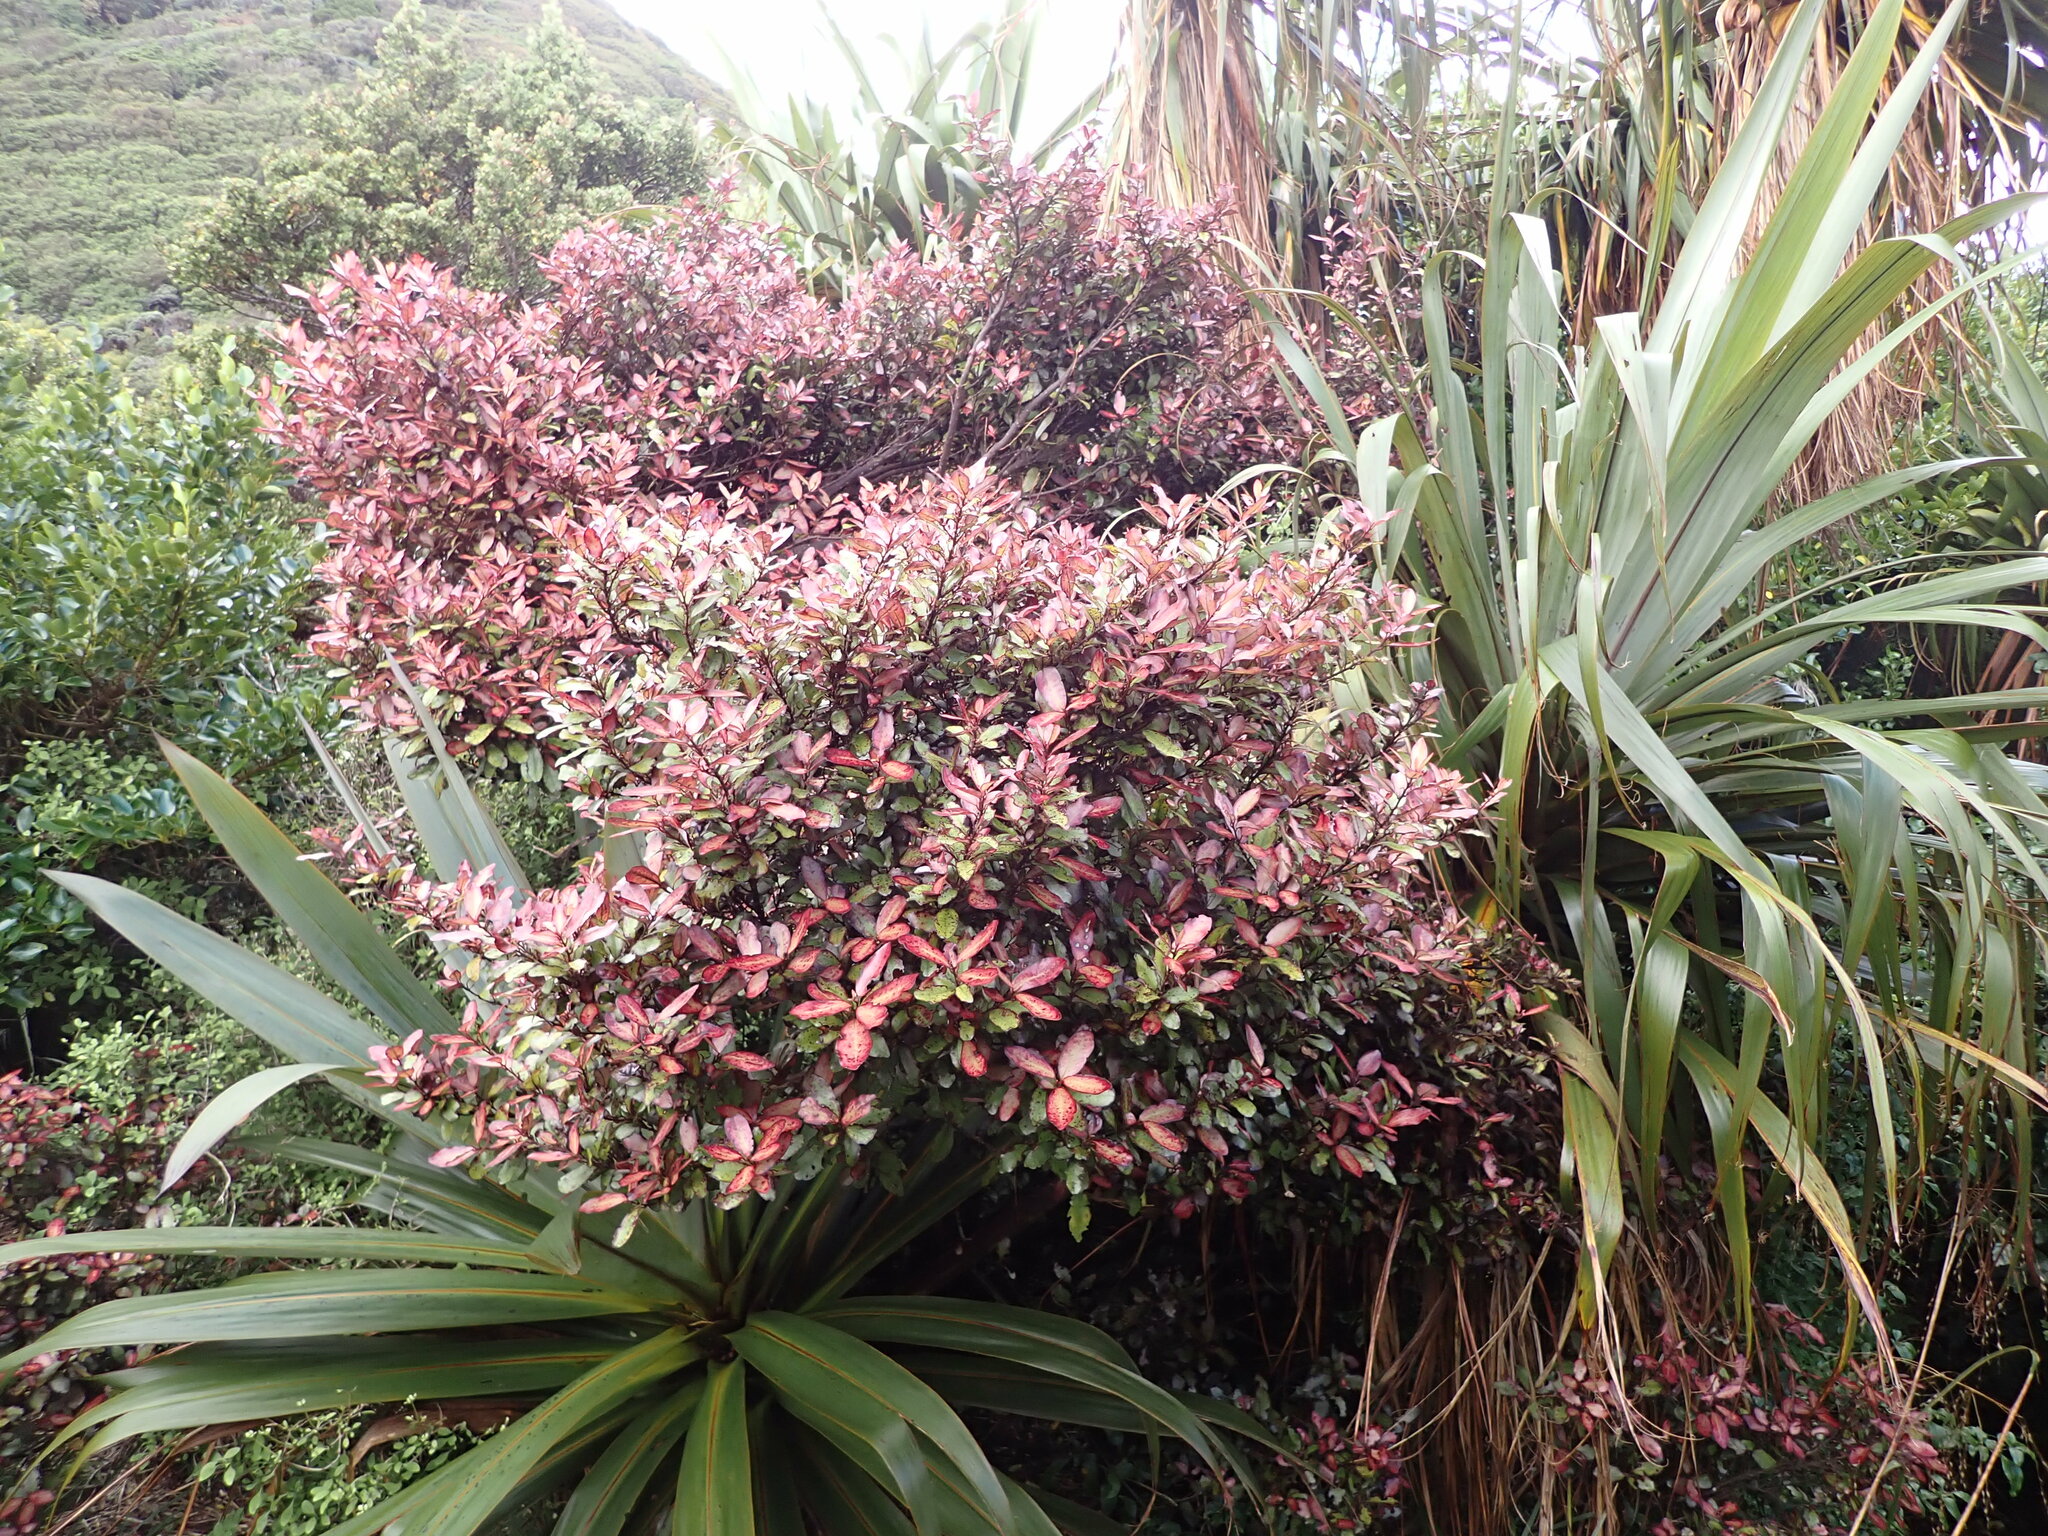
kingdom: Plantae
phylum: Tracheophyta
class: Magnoliopsida
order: Canellales
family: Winteraceae
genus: Pseudowintera
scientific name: Pseudowintera colorata
